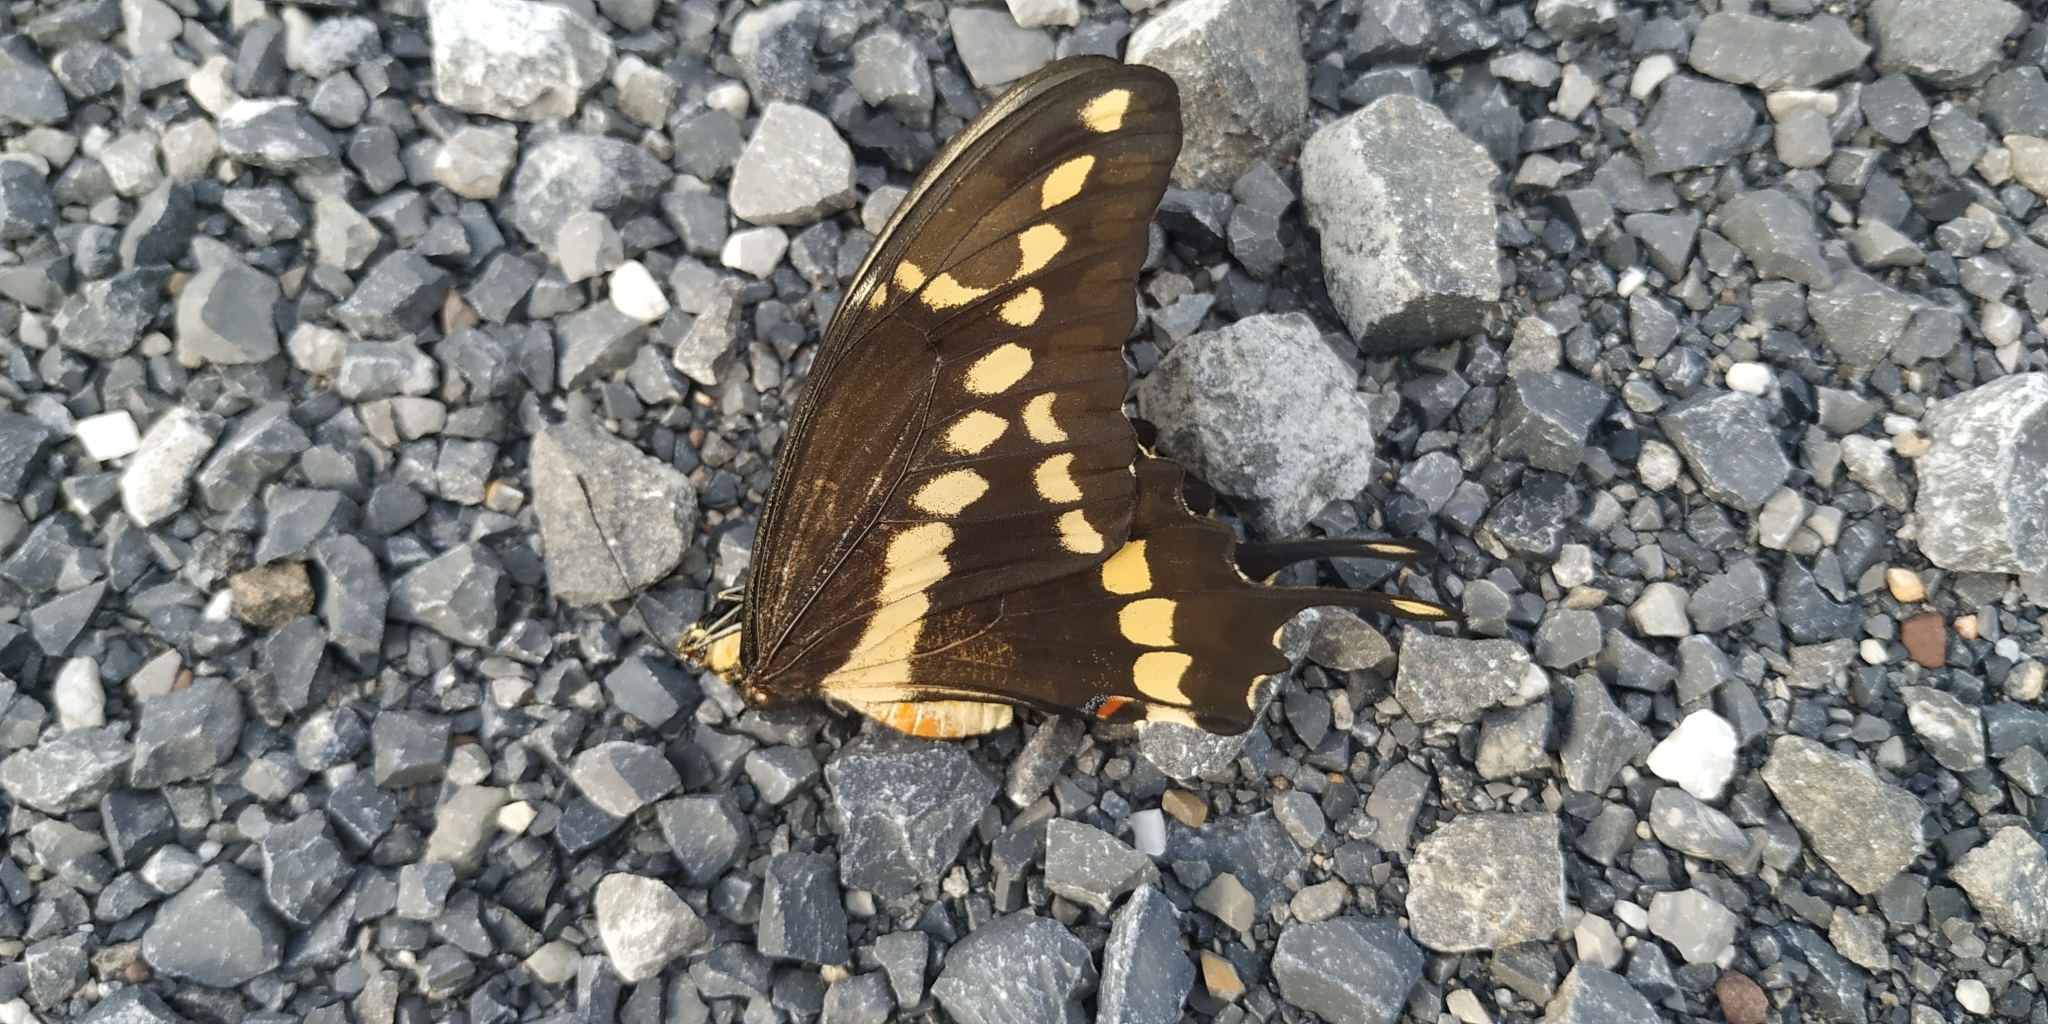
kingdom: Animalia
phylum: Arthropoda
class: Insecta
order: Lepidoptera
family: Papilionidae
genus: Papilio
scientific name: Papilio rumiko
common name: Western giant swallowtail
